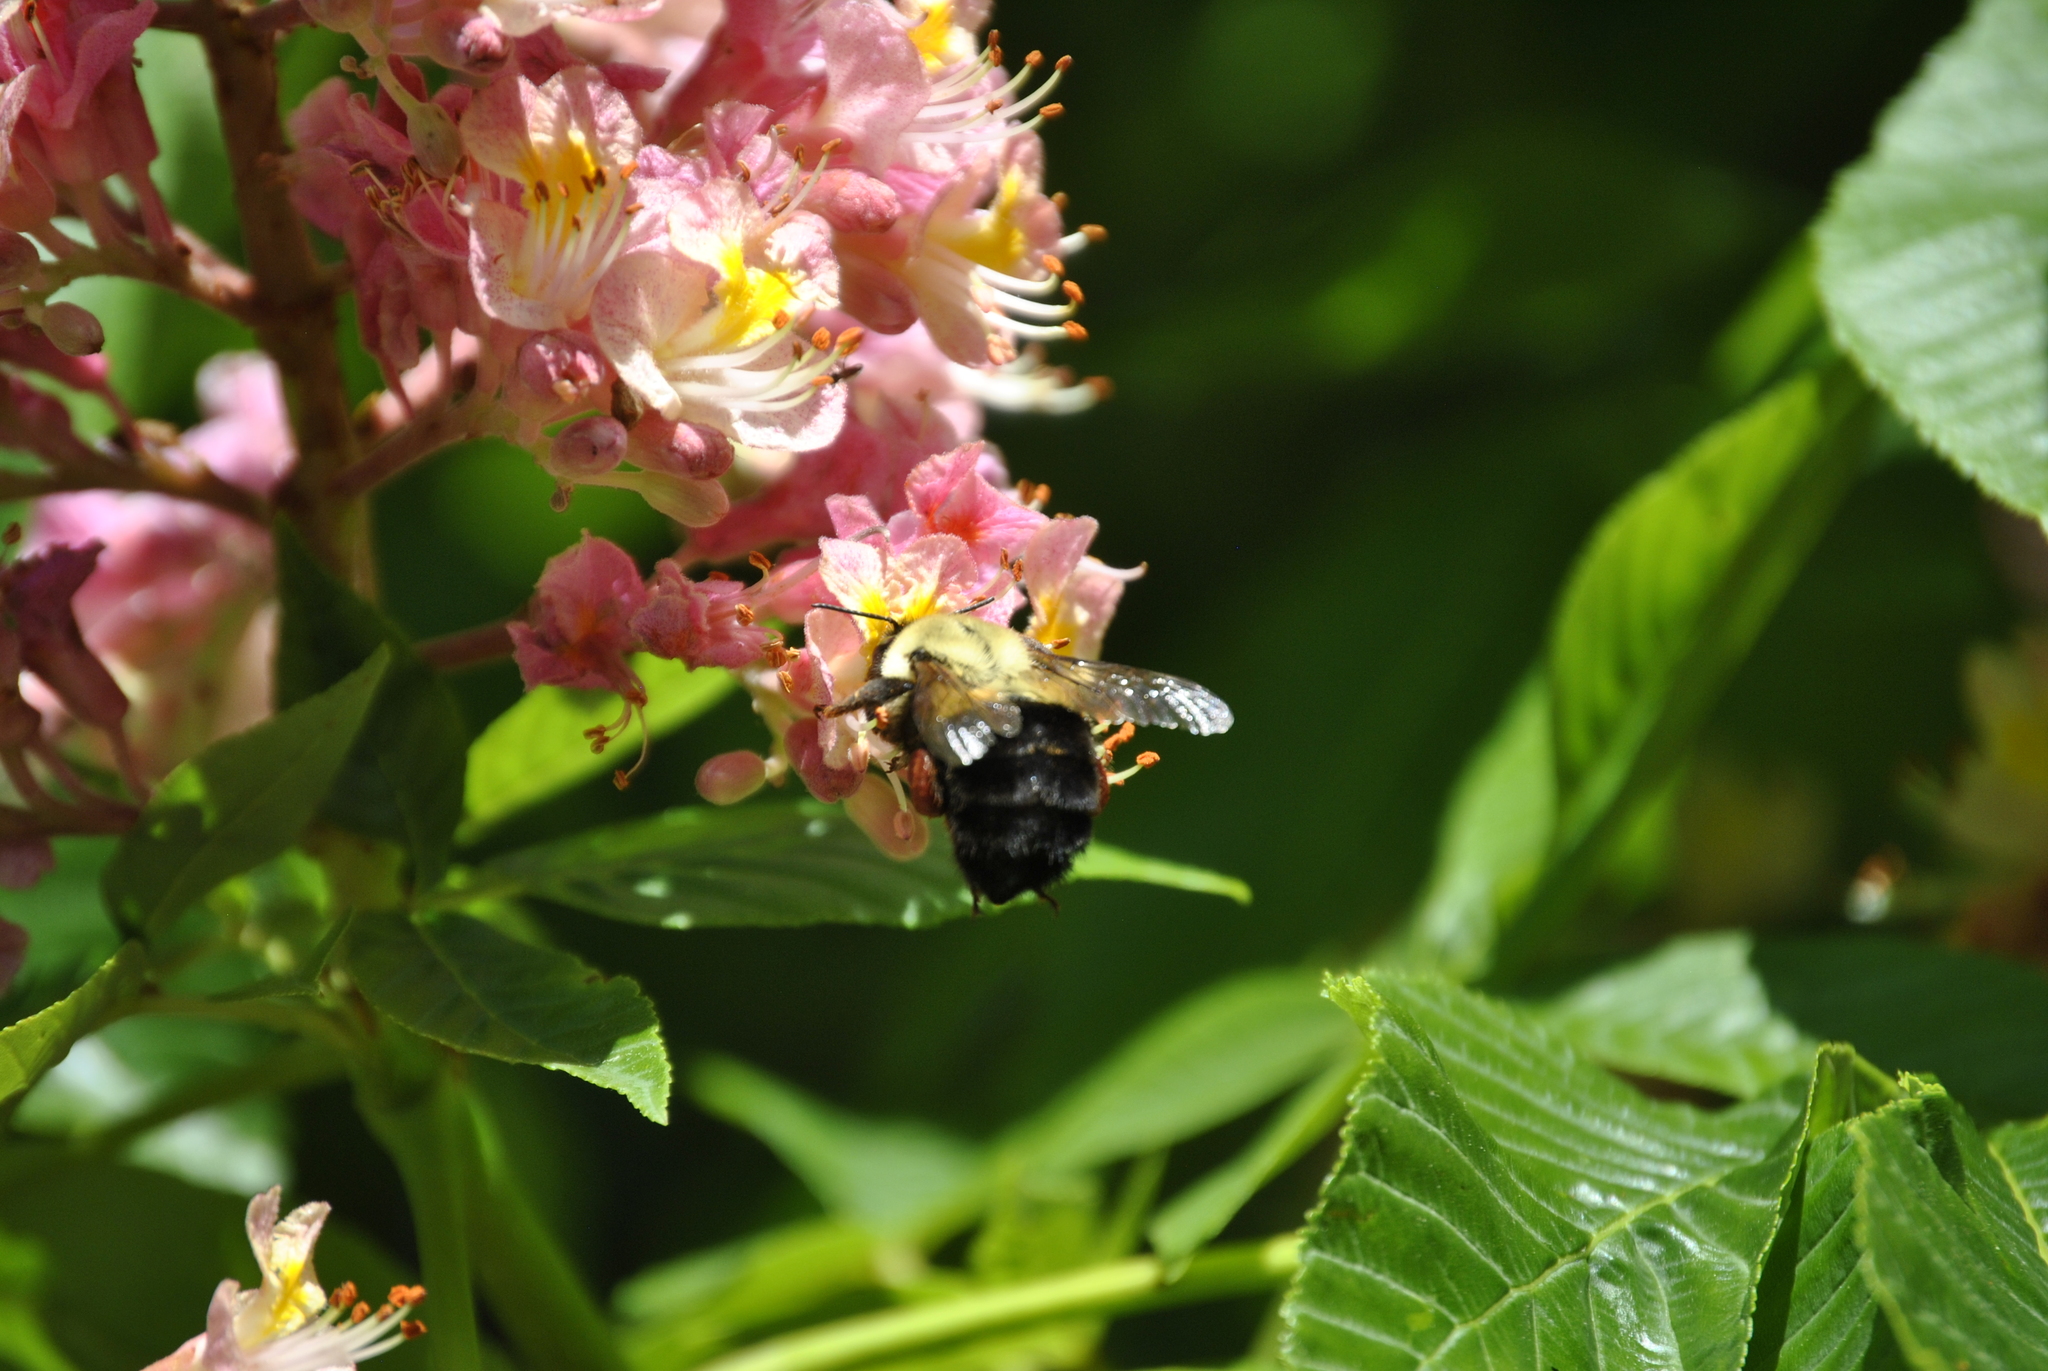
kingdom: Animalia
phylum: Arthropoda
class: Insecta
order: Hymenoptera
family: Apidae
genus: Bombus
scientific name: Bombus impatiens
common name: Common eastern bumble bee
